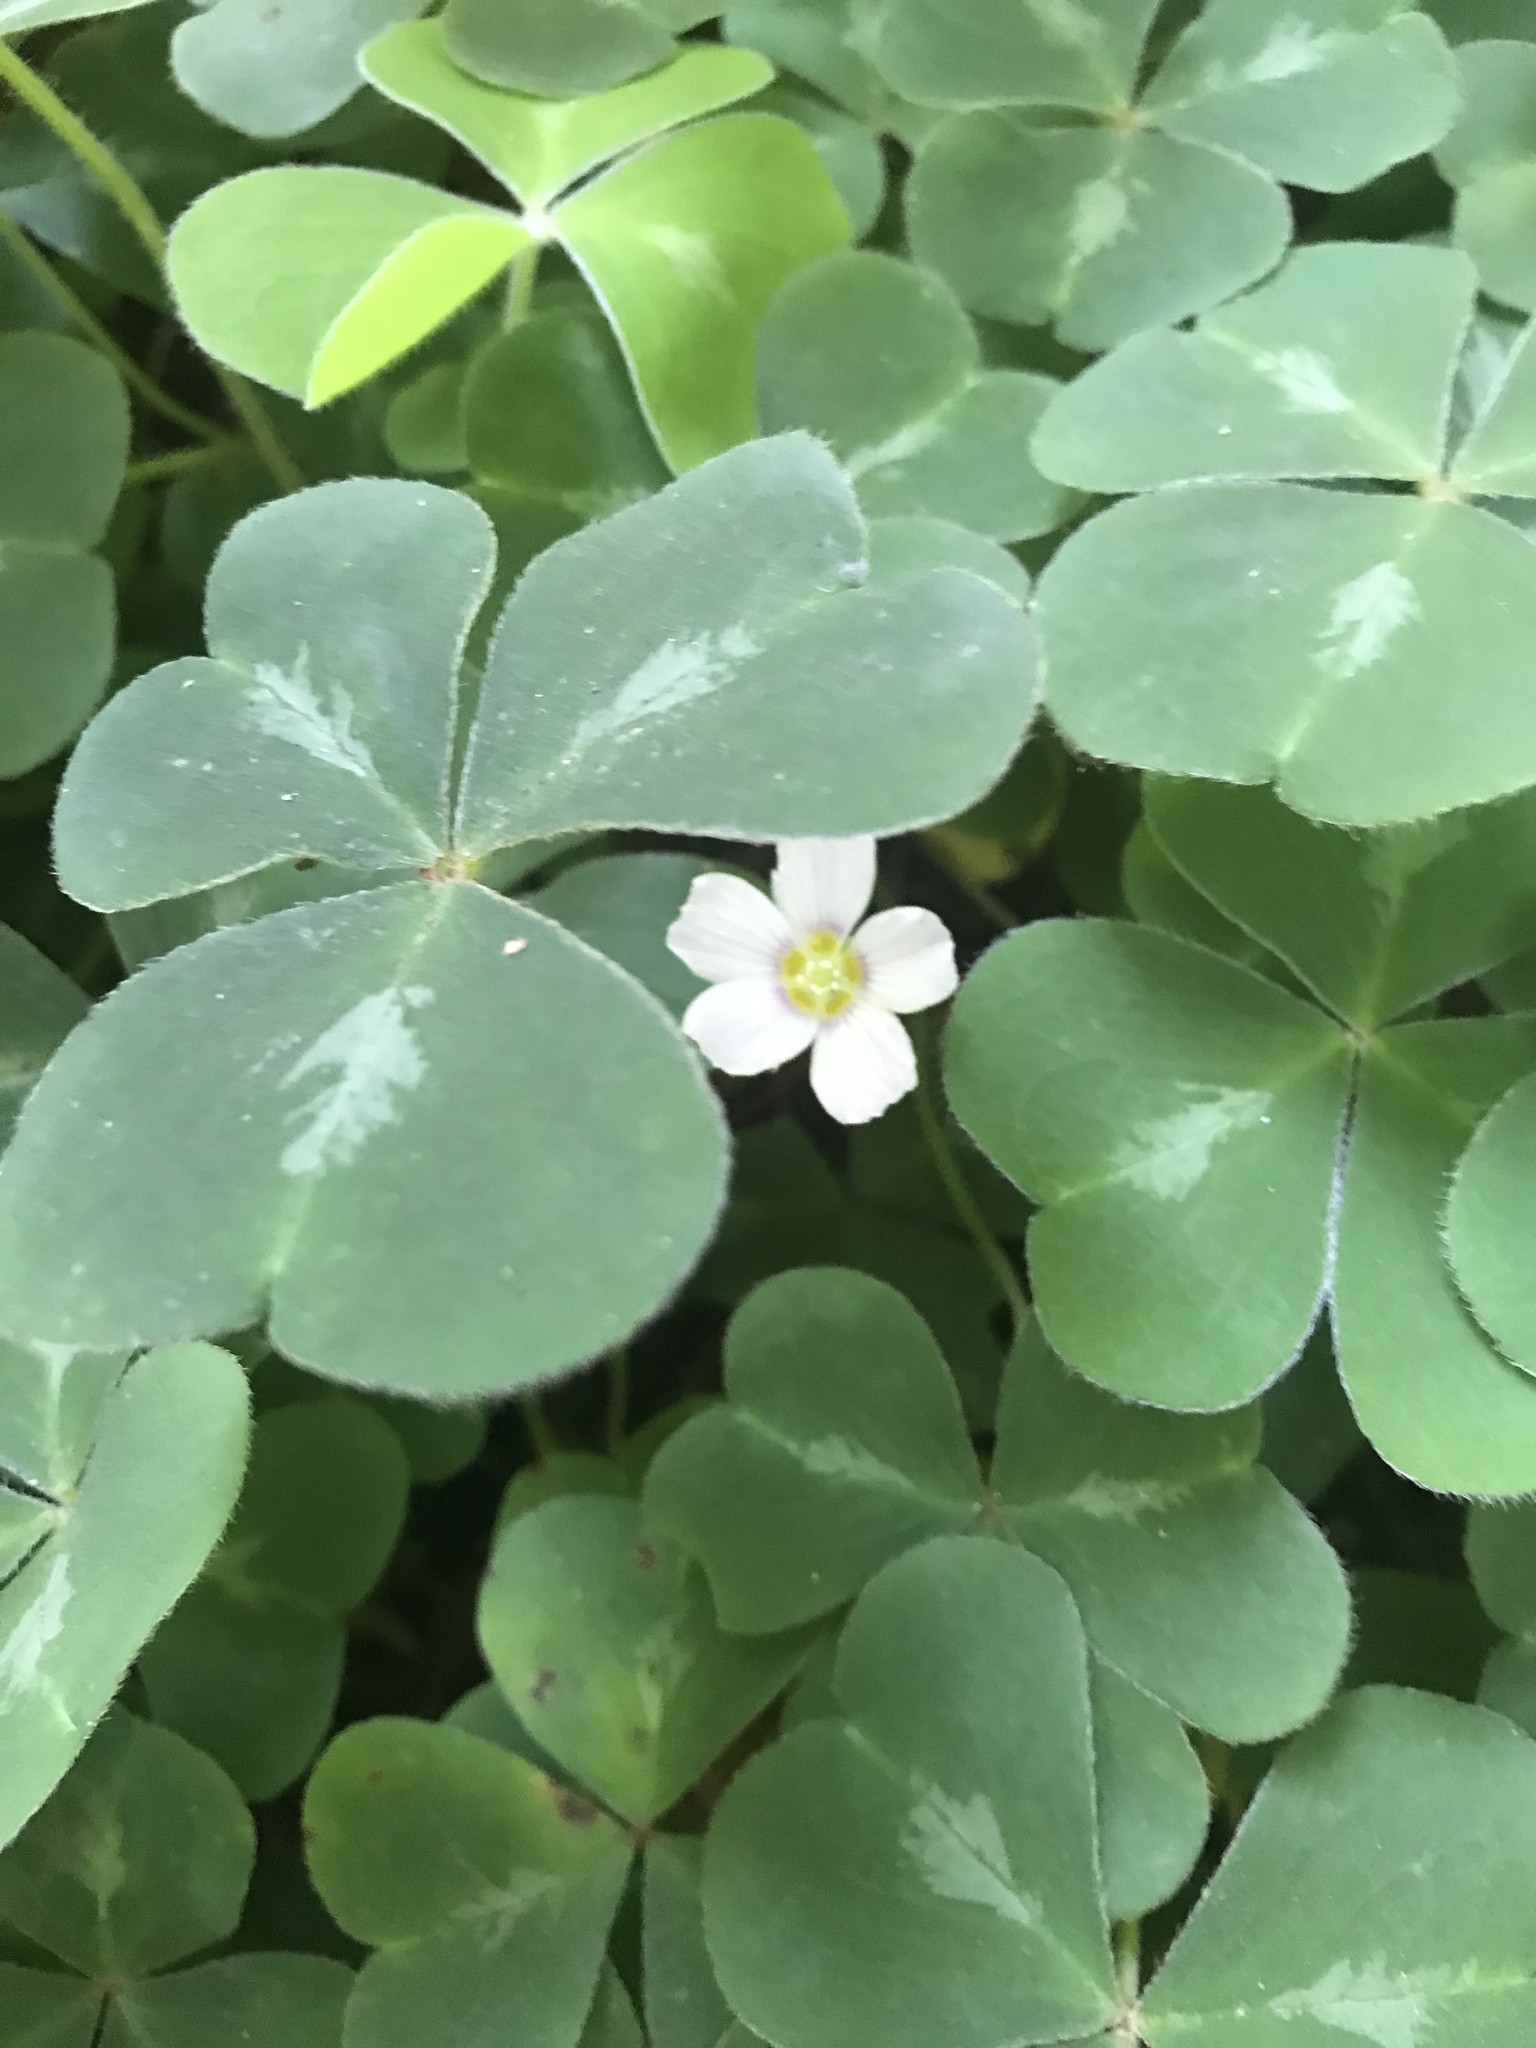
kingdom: Plantae
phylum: Tracheophyta
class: Magnoliopsida
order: Oxalidales
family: Oxalidaceae
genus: Oxalis
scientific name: Oxalis oregana
